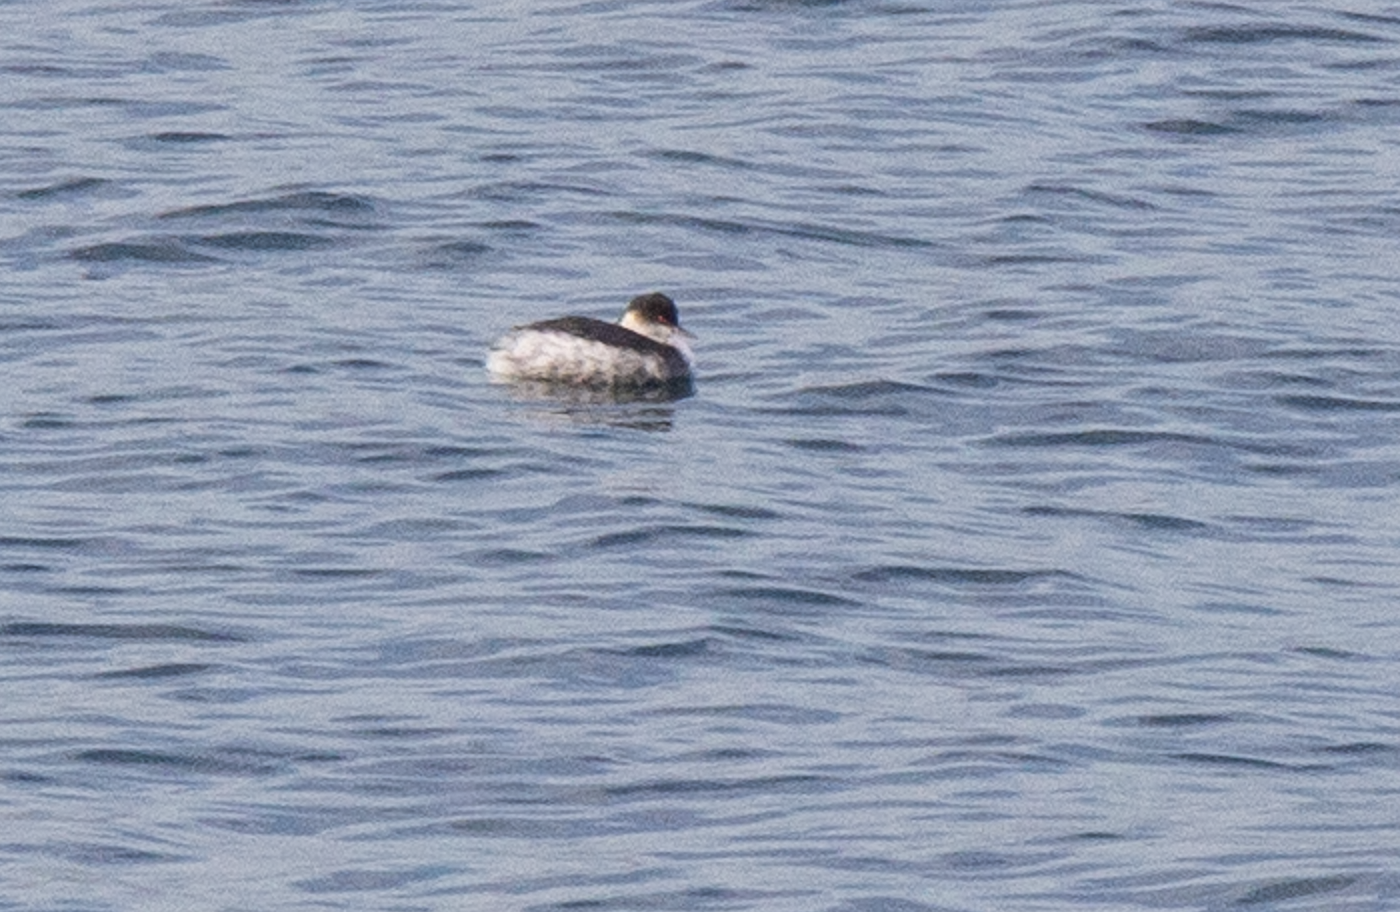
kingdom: Animalia
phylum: Chordata
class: Aves
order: Podicipediformes
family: Podicipedidae
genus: Podiceps
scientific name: Podiceps nigricollis
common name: Black-necked grebe
